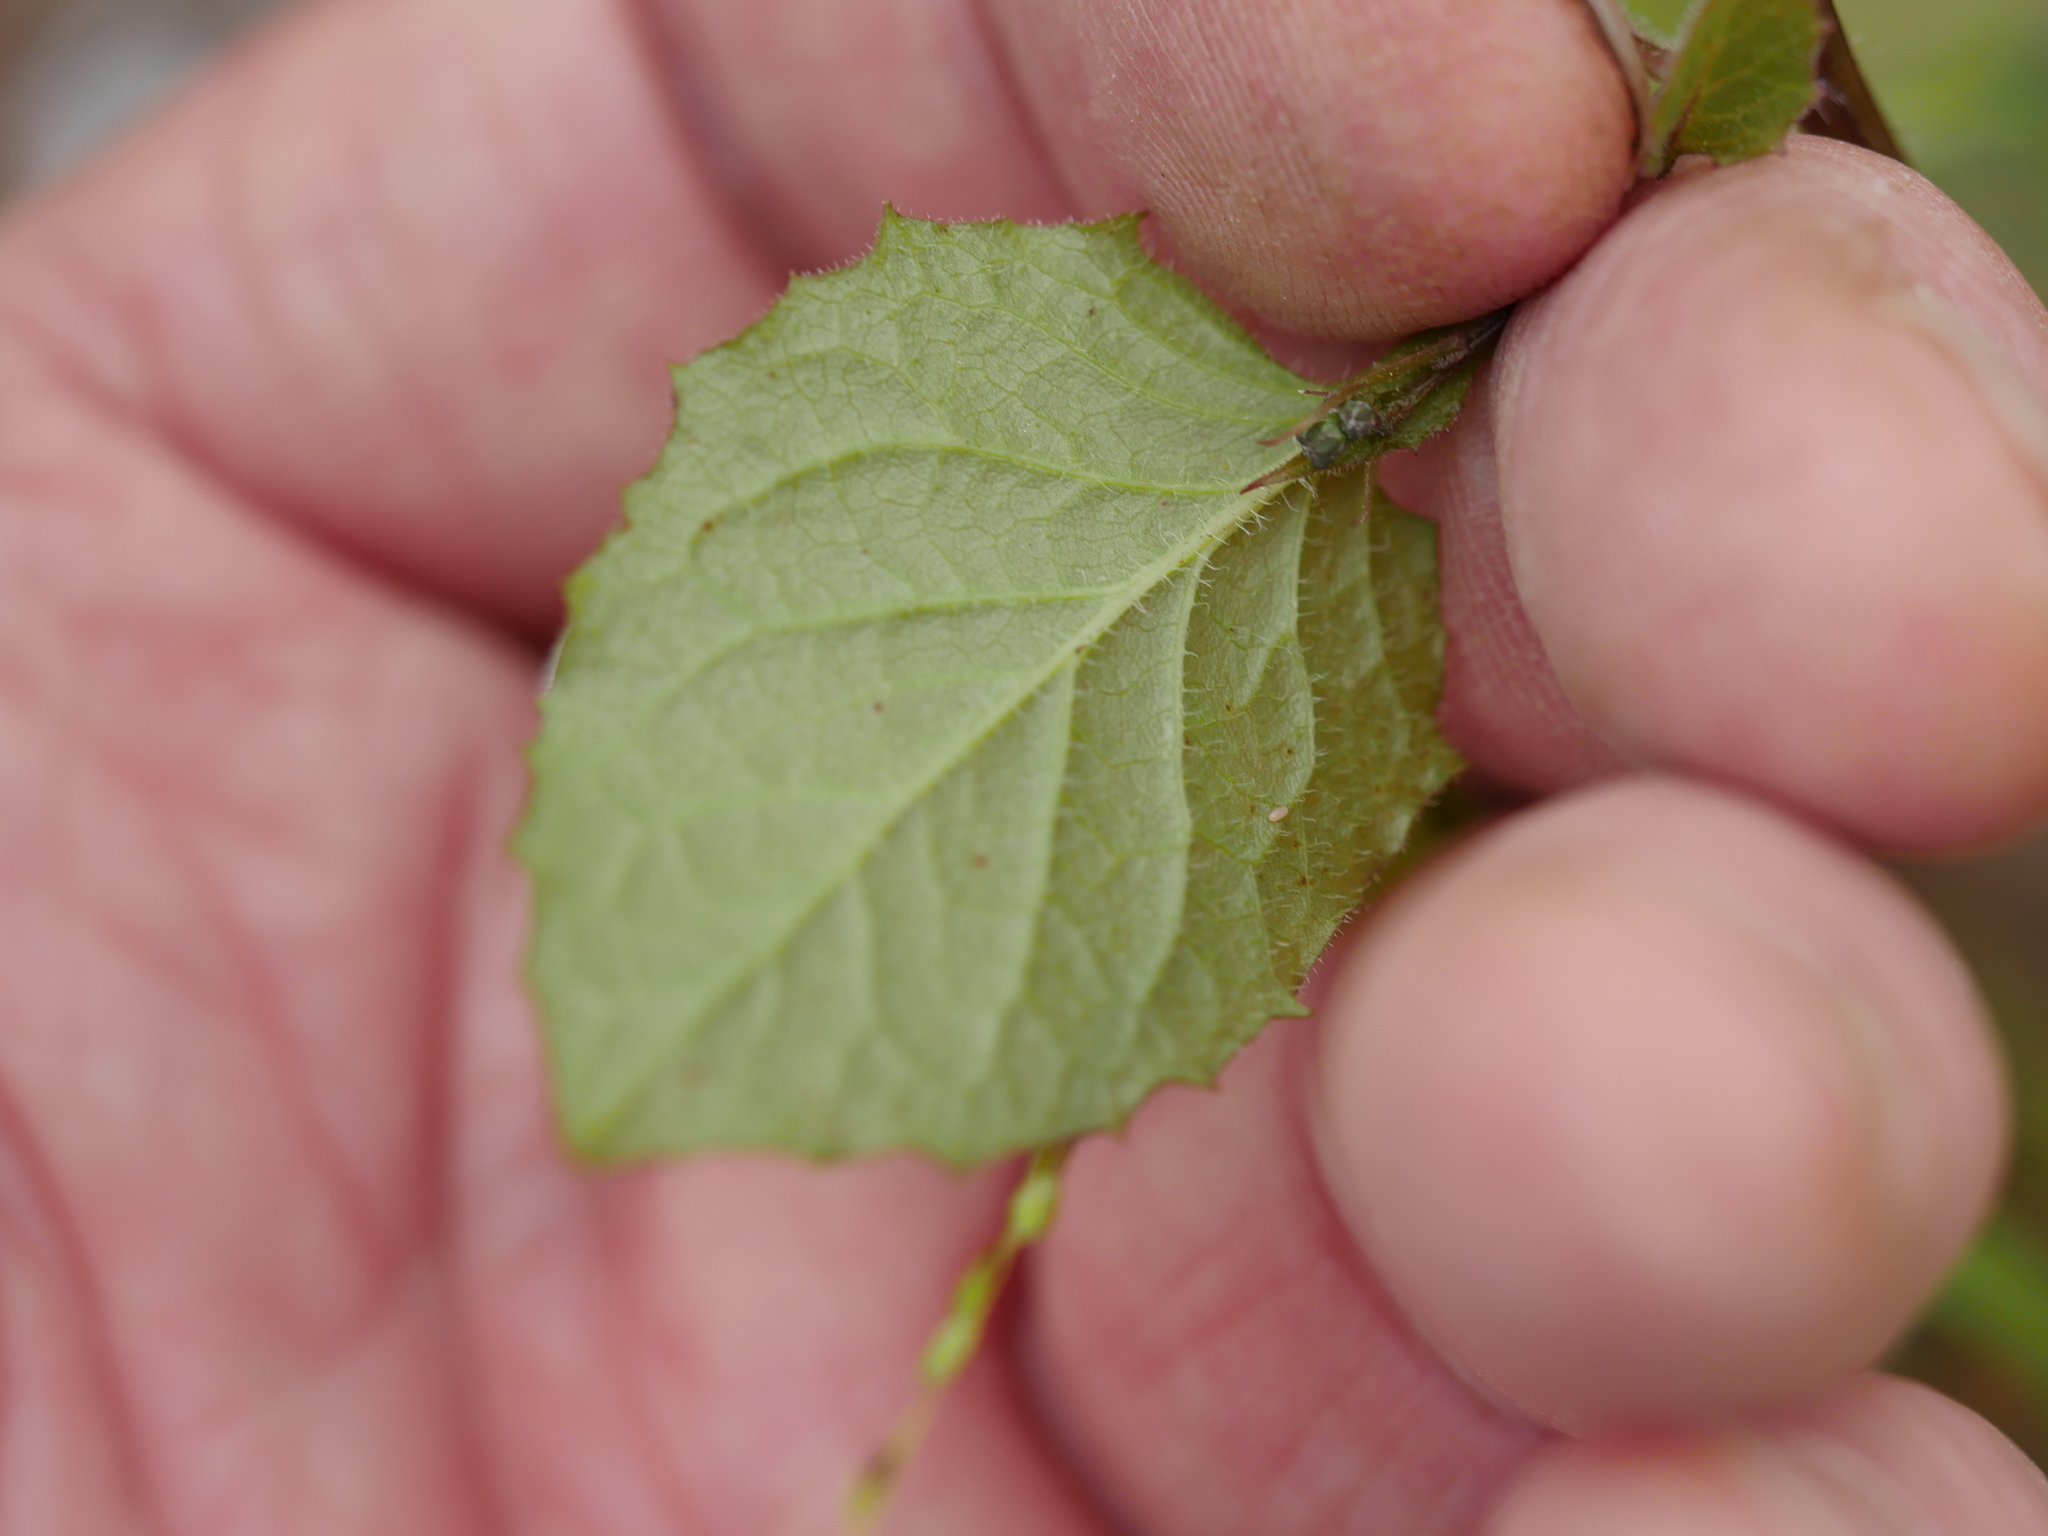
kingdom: Plantae
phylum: Tracheophyta
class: Magnoliopsida
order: Asterales
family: Asteraceae
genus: Lapsana
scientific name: Lapsana communis
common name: Nipplewort
